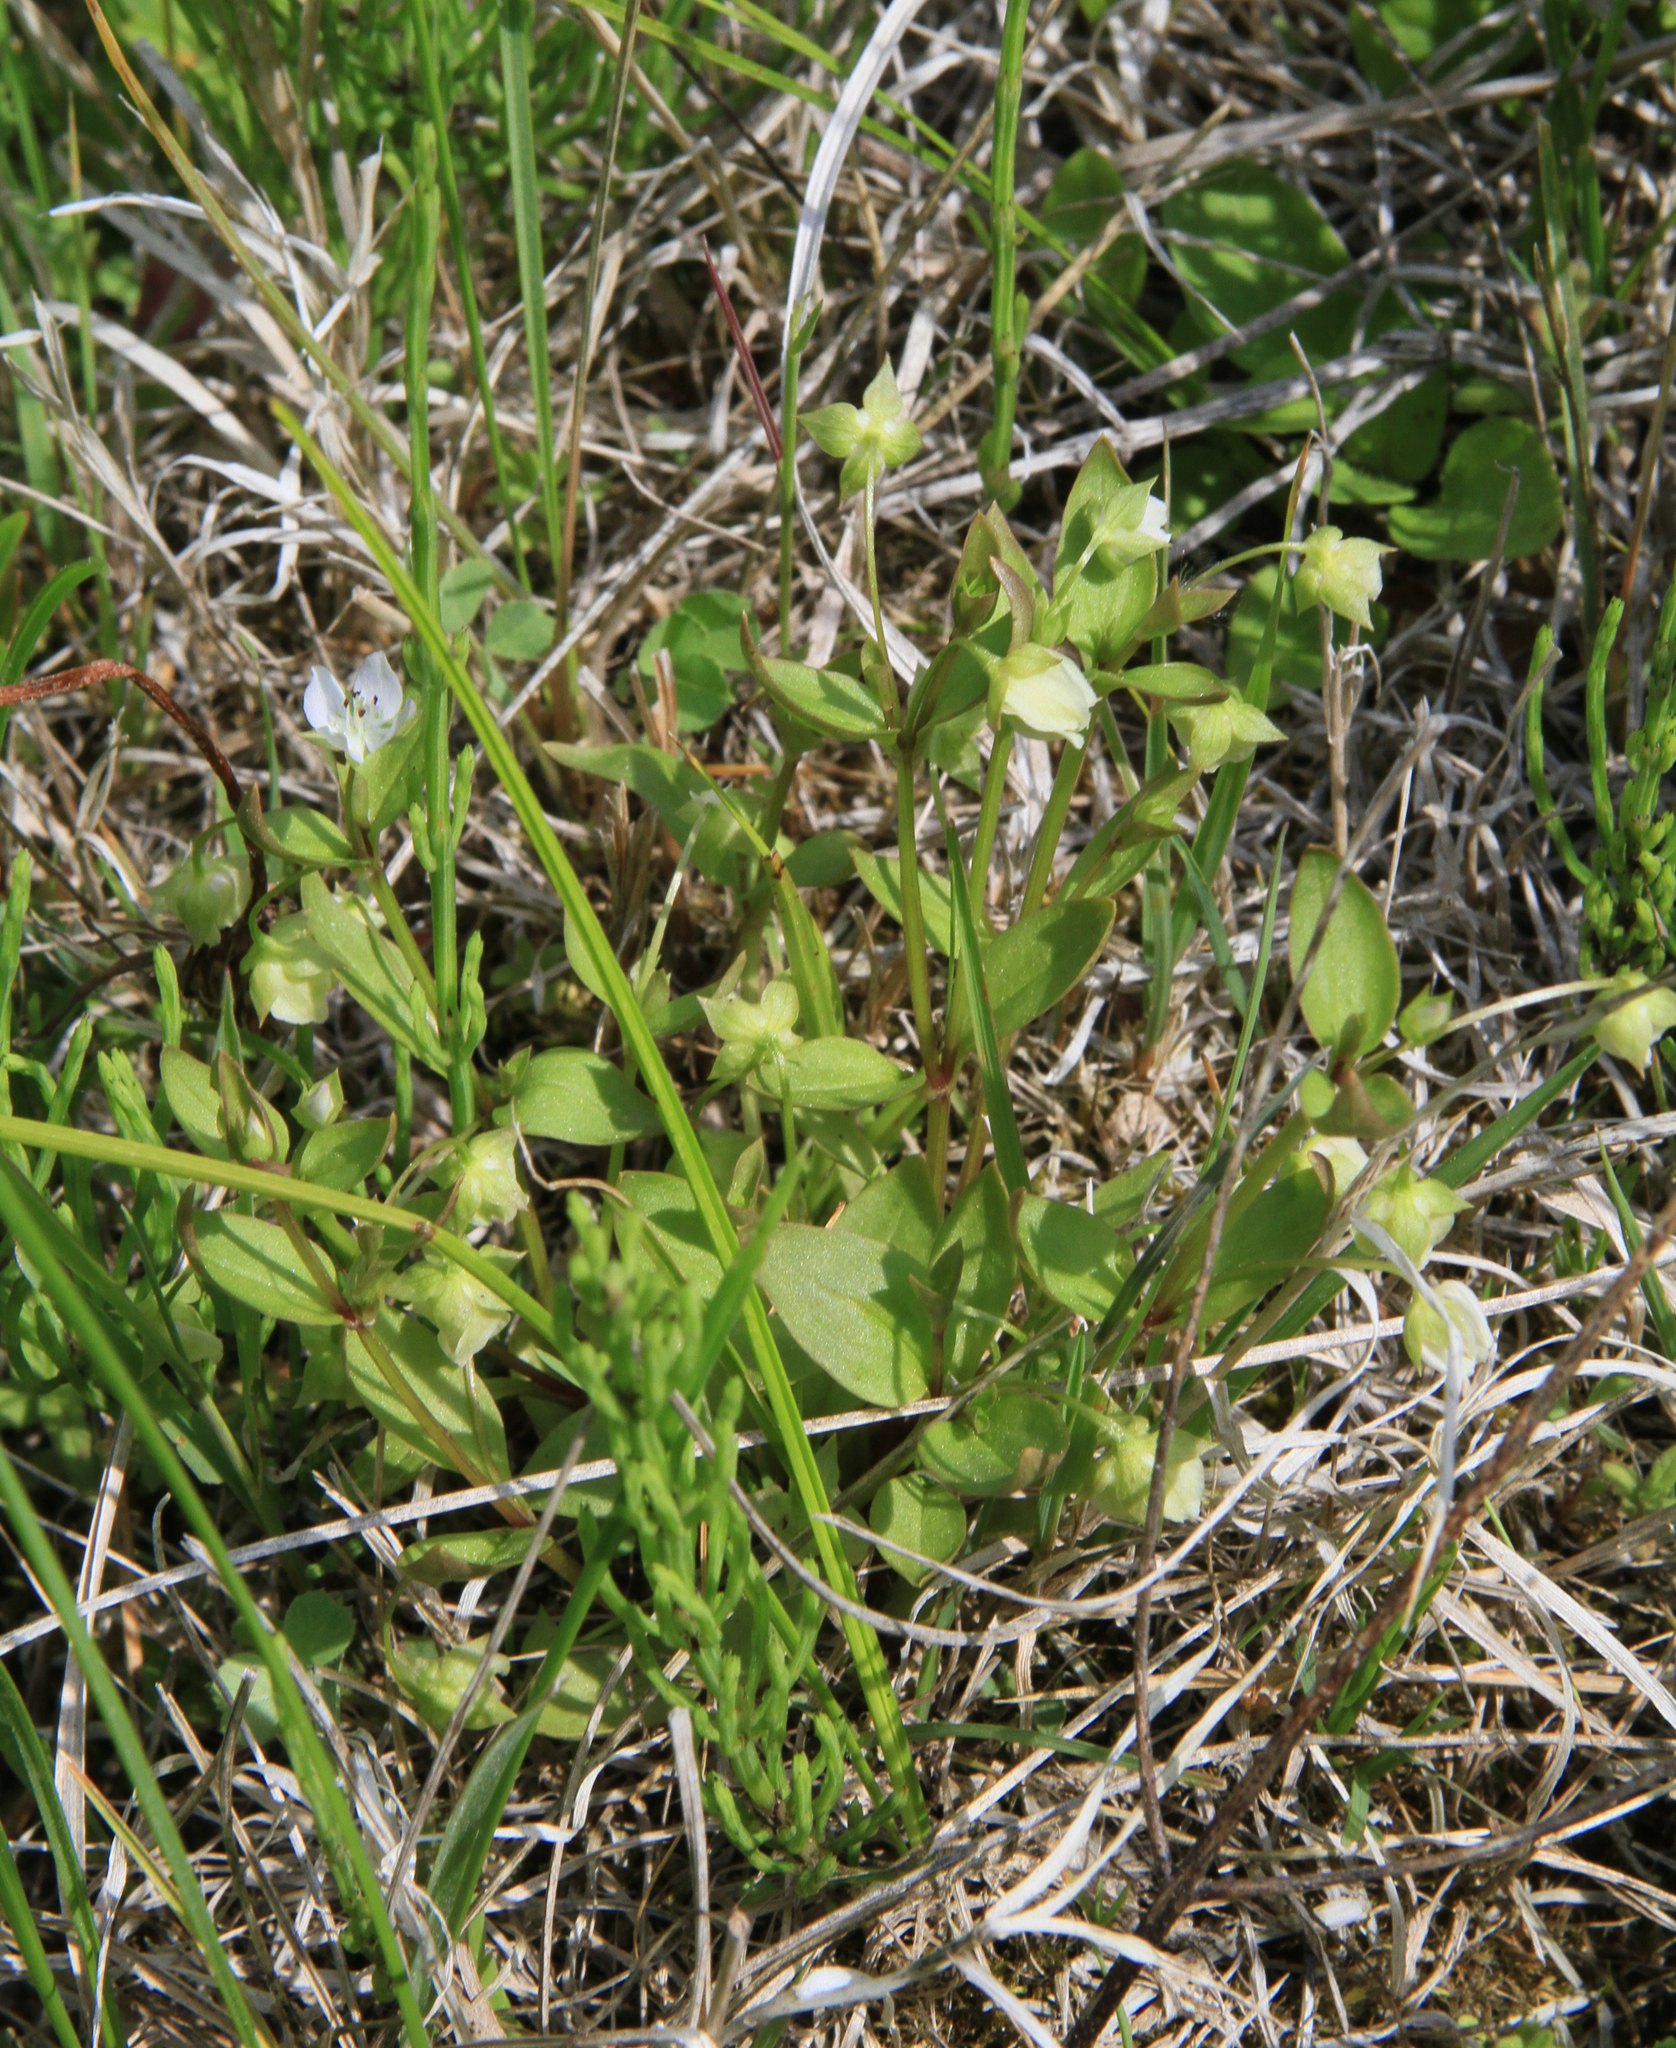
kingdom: Plantae
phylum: Tracheophyta
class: Magnoliopsida
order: Gentianales
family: Gentianaceae
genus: Swertia
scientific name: Swertia dichotoma
